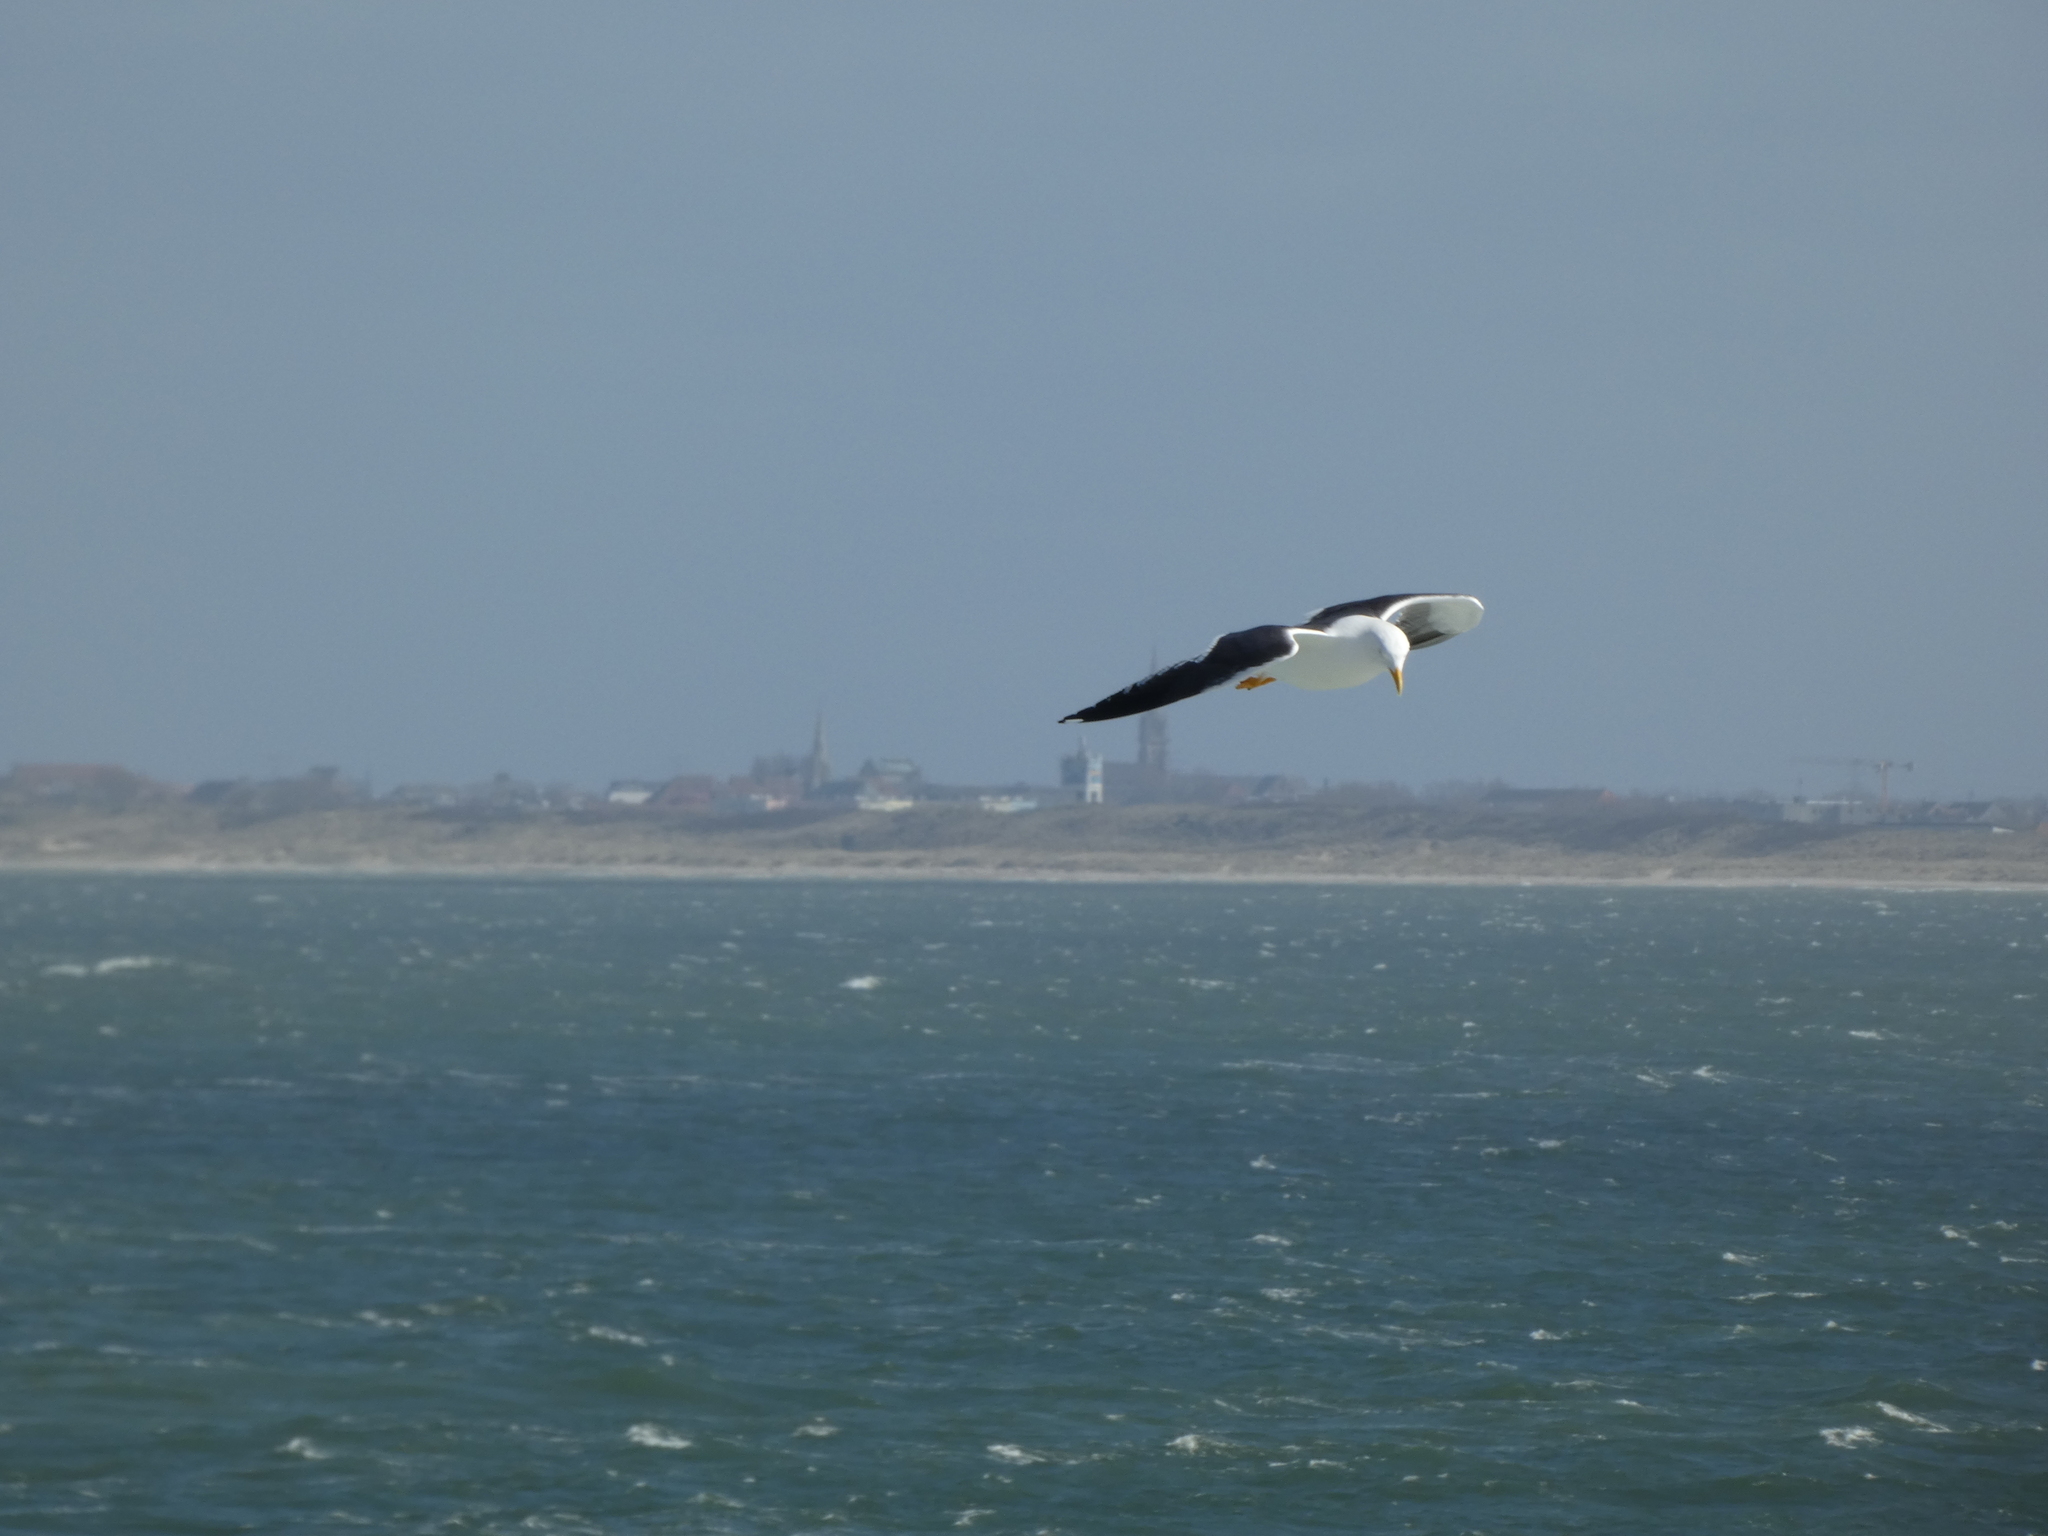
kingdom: Animalia
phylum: Chordata
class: Aves
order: Charadriiformes
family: Laridae
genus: Larus
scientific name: Larus fuscus
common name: Lesser black-backed gull
